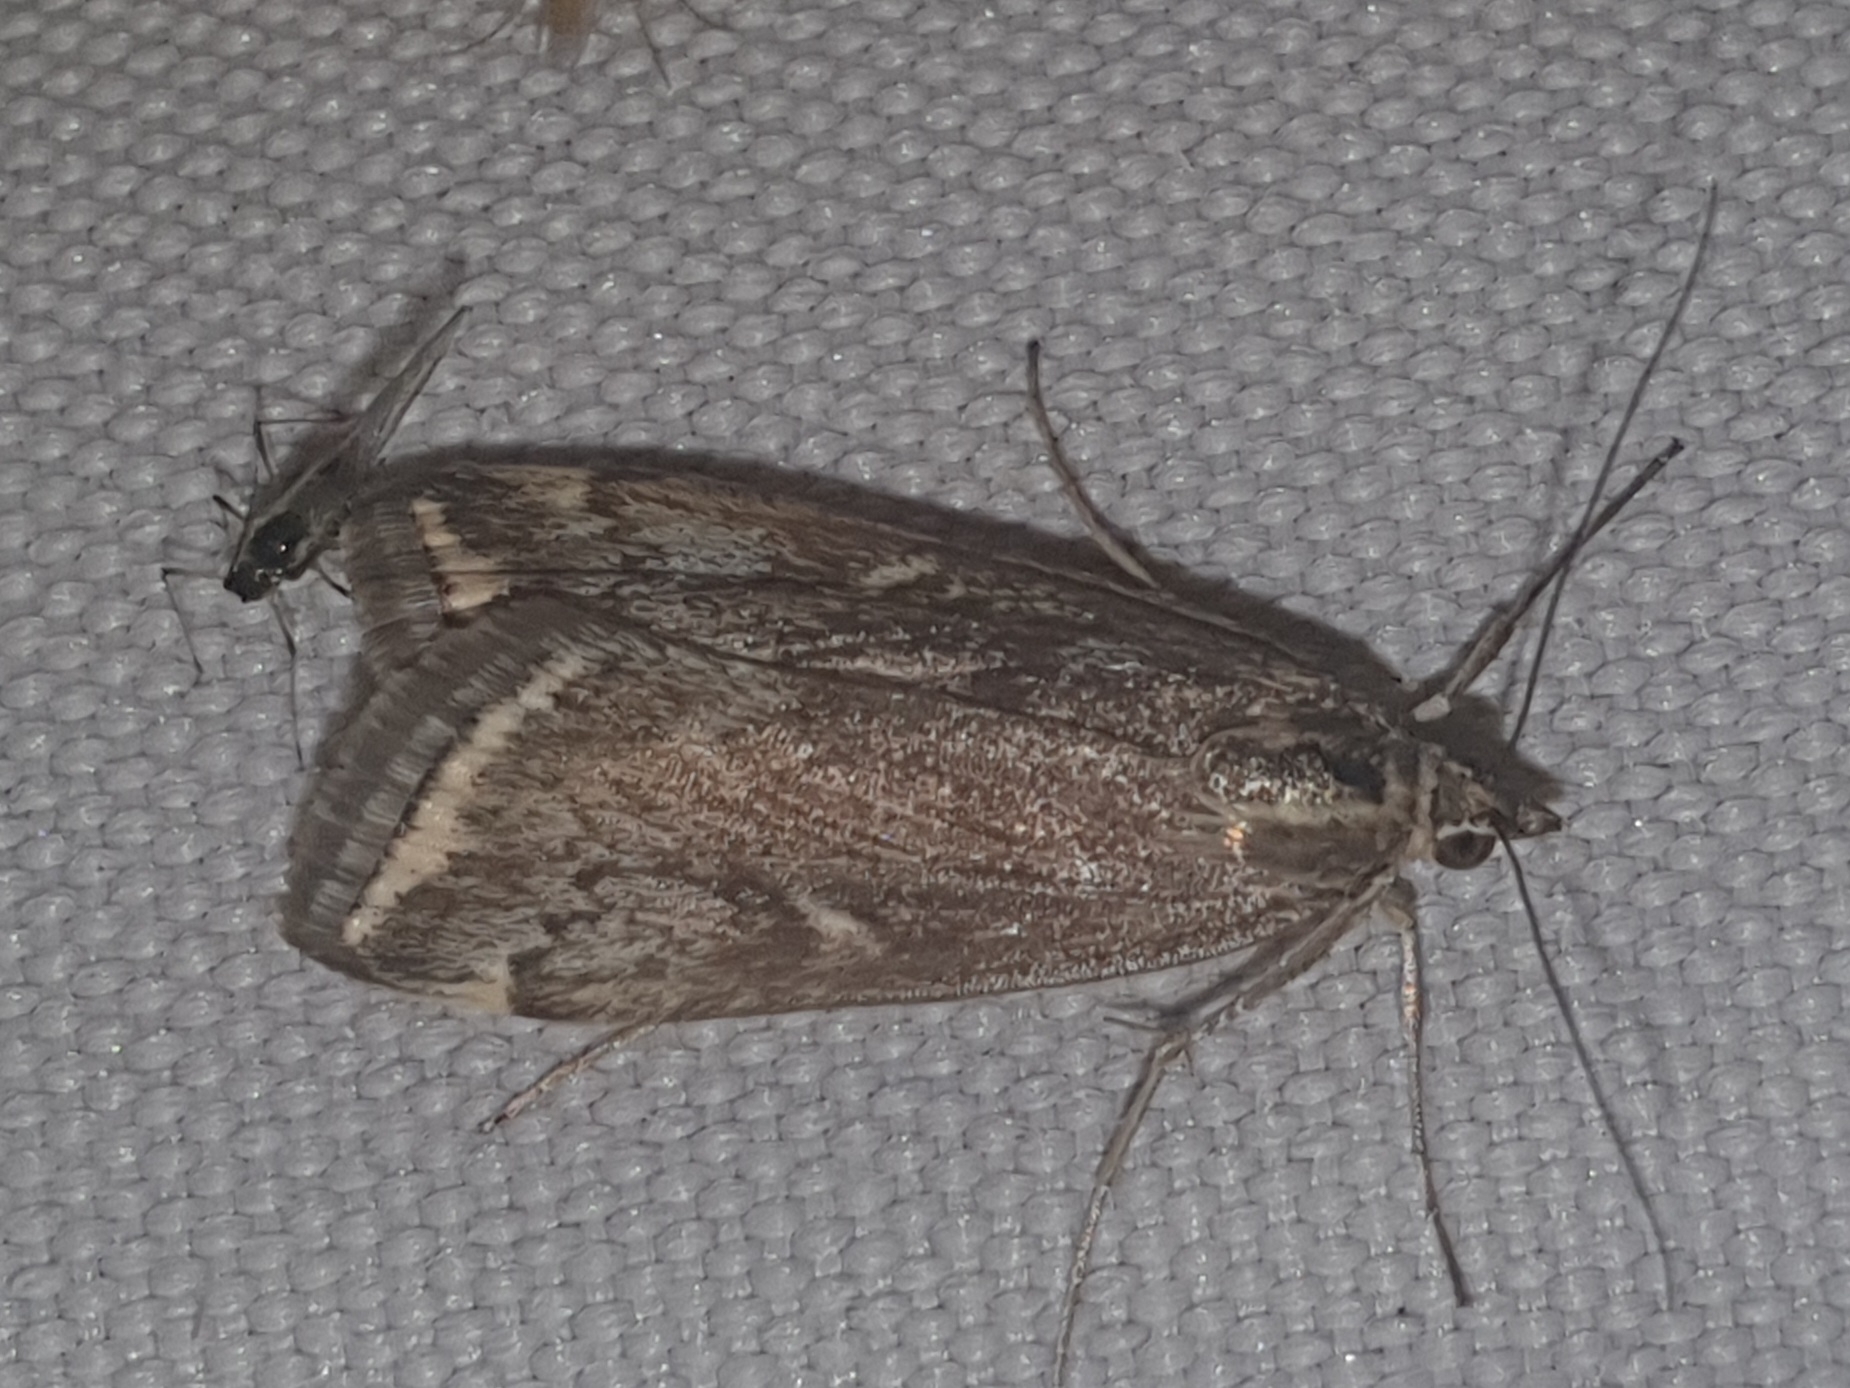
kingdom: Animalia
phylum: Arthropoda
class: Insecta
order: Lepidoptera
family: Crambidae
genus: Loxostege
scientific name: Loxostege sticticalis
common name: Crambid moth
